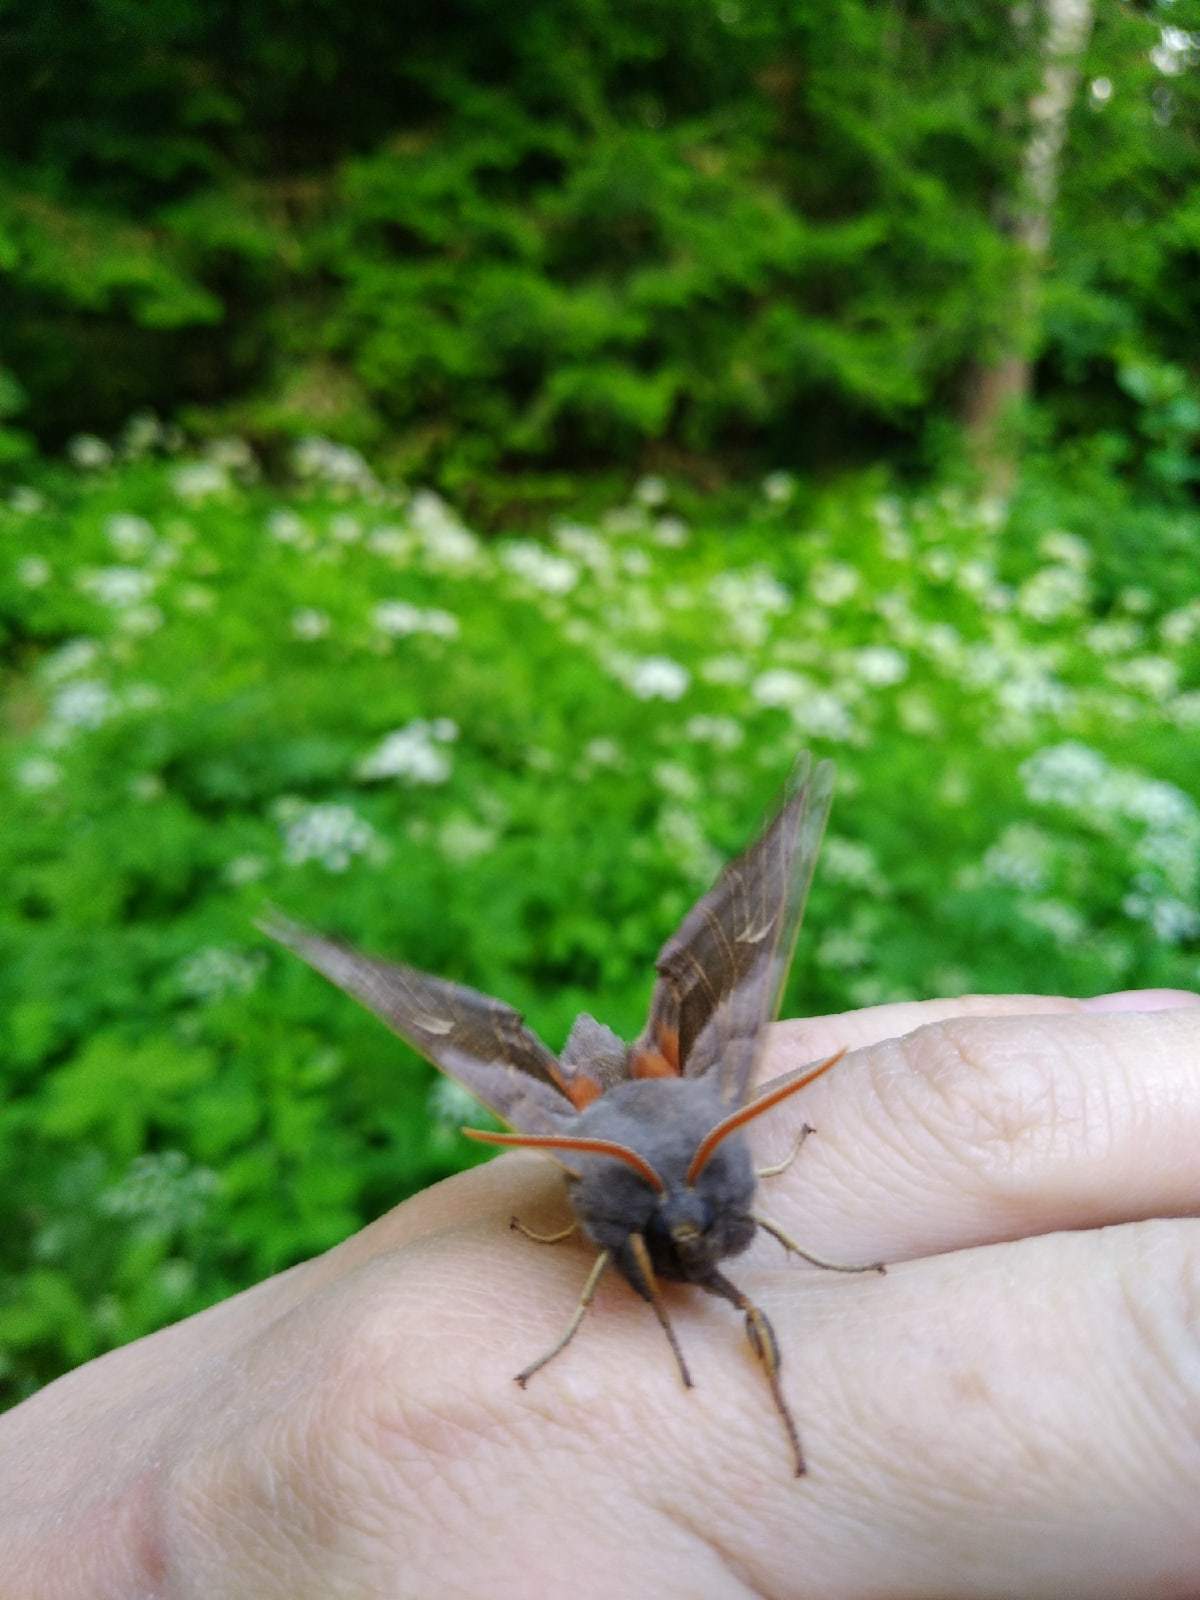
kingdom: Animalia
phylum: Arthropoda
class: Insecta
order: Lepidoptera
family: Sphingidae
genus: Laothoe
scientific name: Laothoe populi
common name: Poplar hawk-moth
